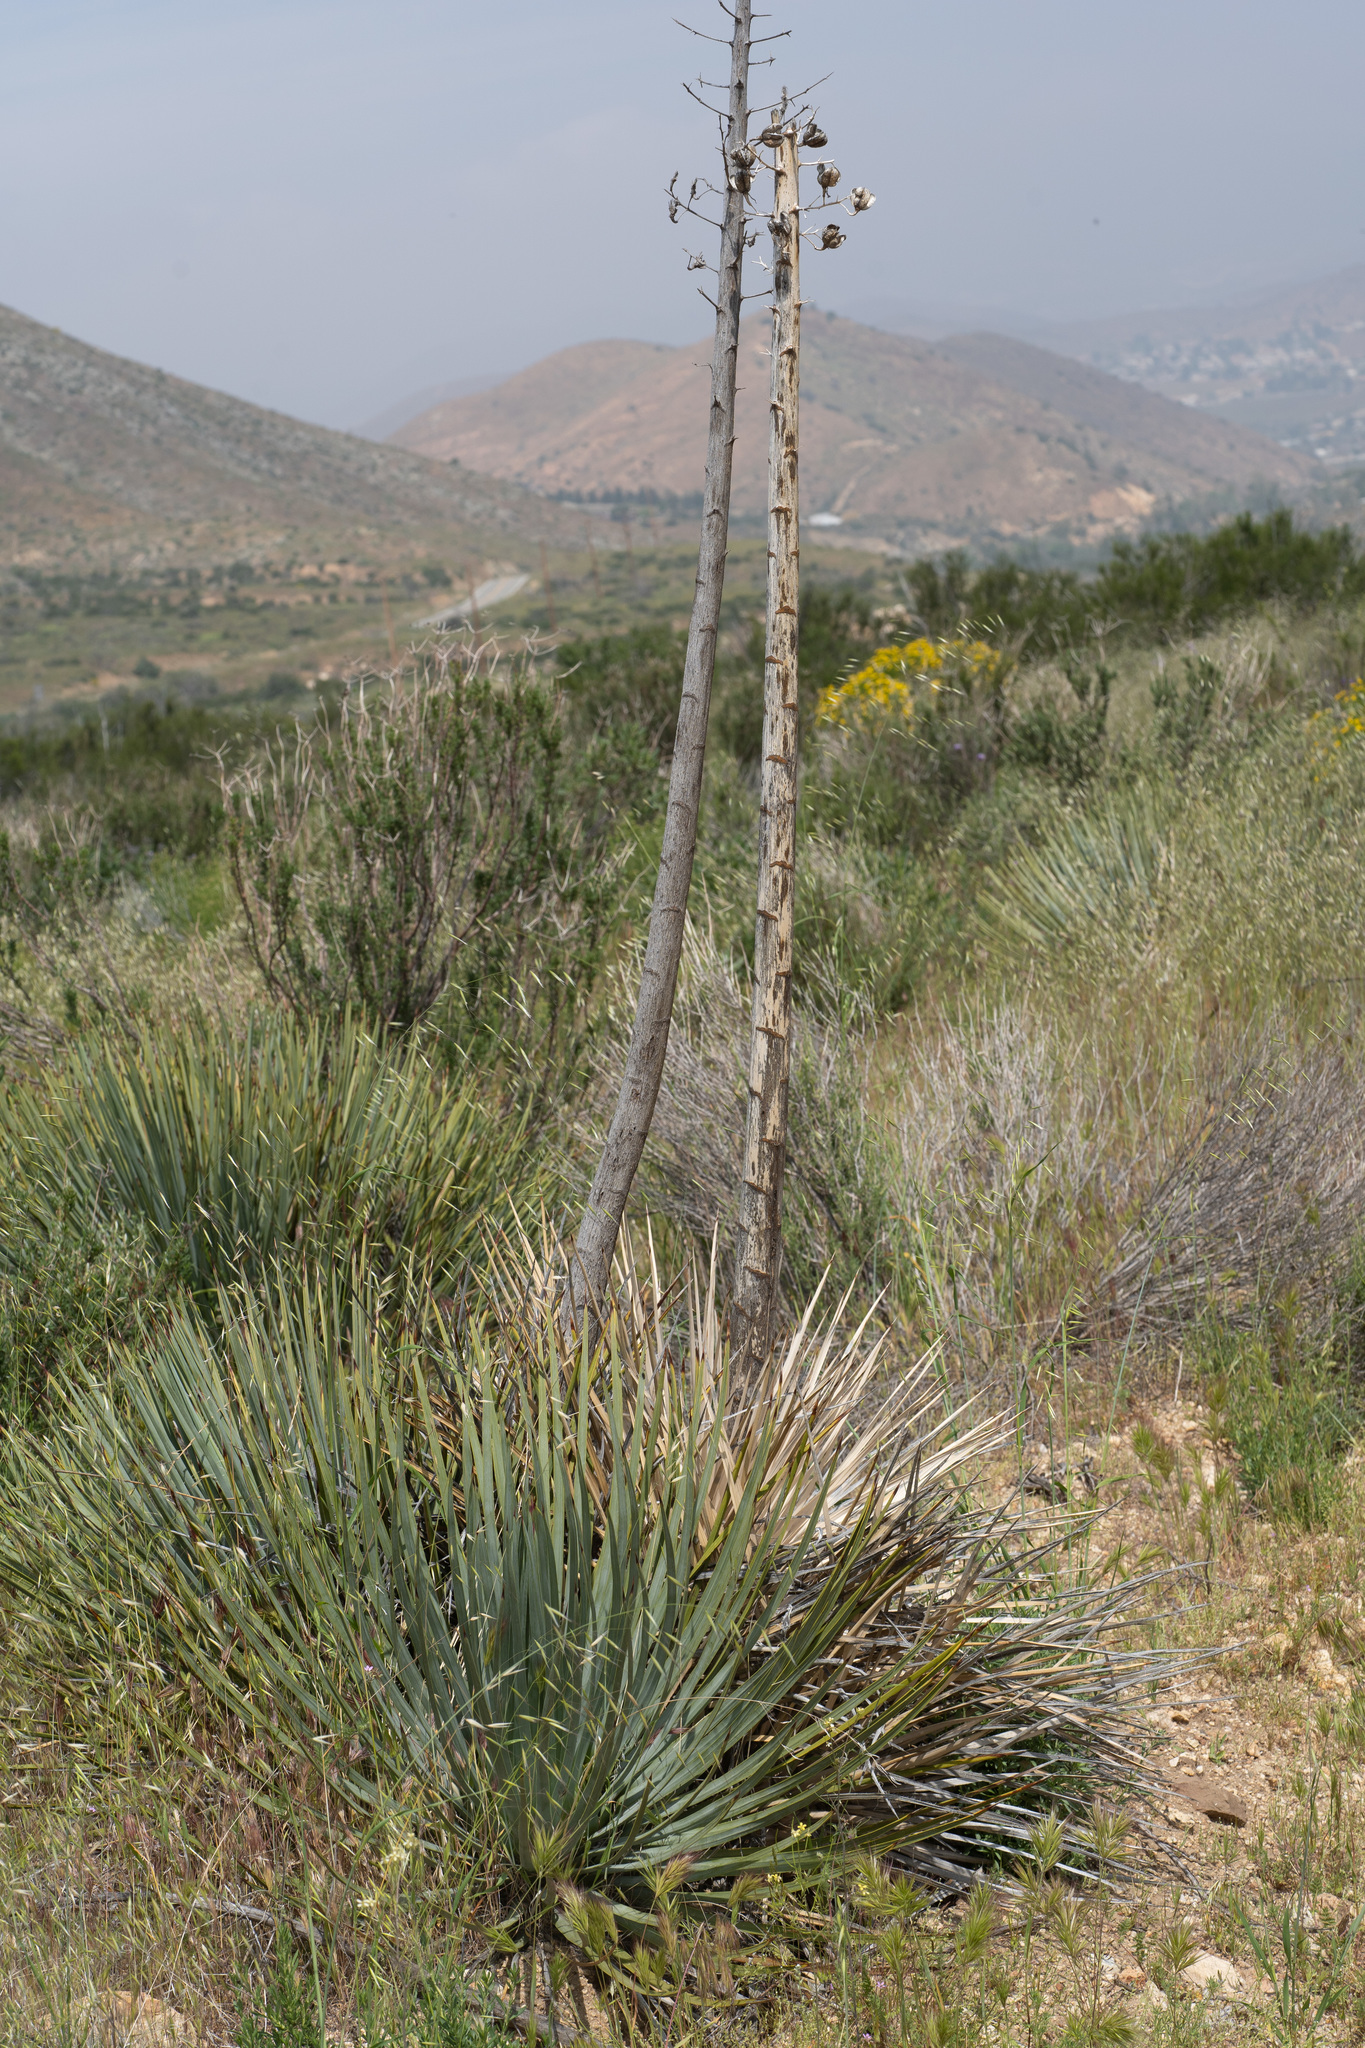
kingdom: Plantae
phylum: Tracheophyta
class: Liliopsida
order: Asparagales
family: Asparagaceae
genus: Hesperoyucca
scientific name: Hesperoyucca whipplei
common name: Our lord's-candle
